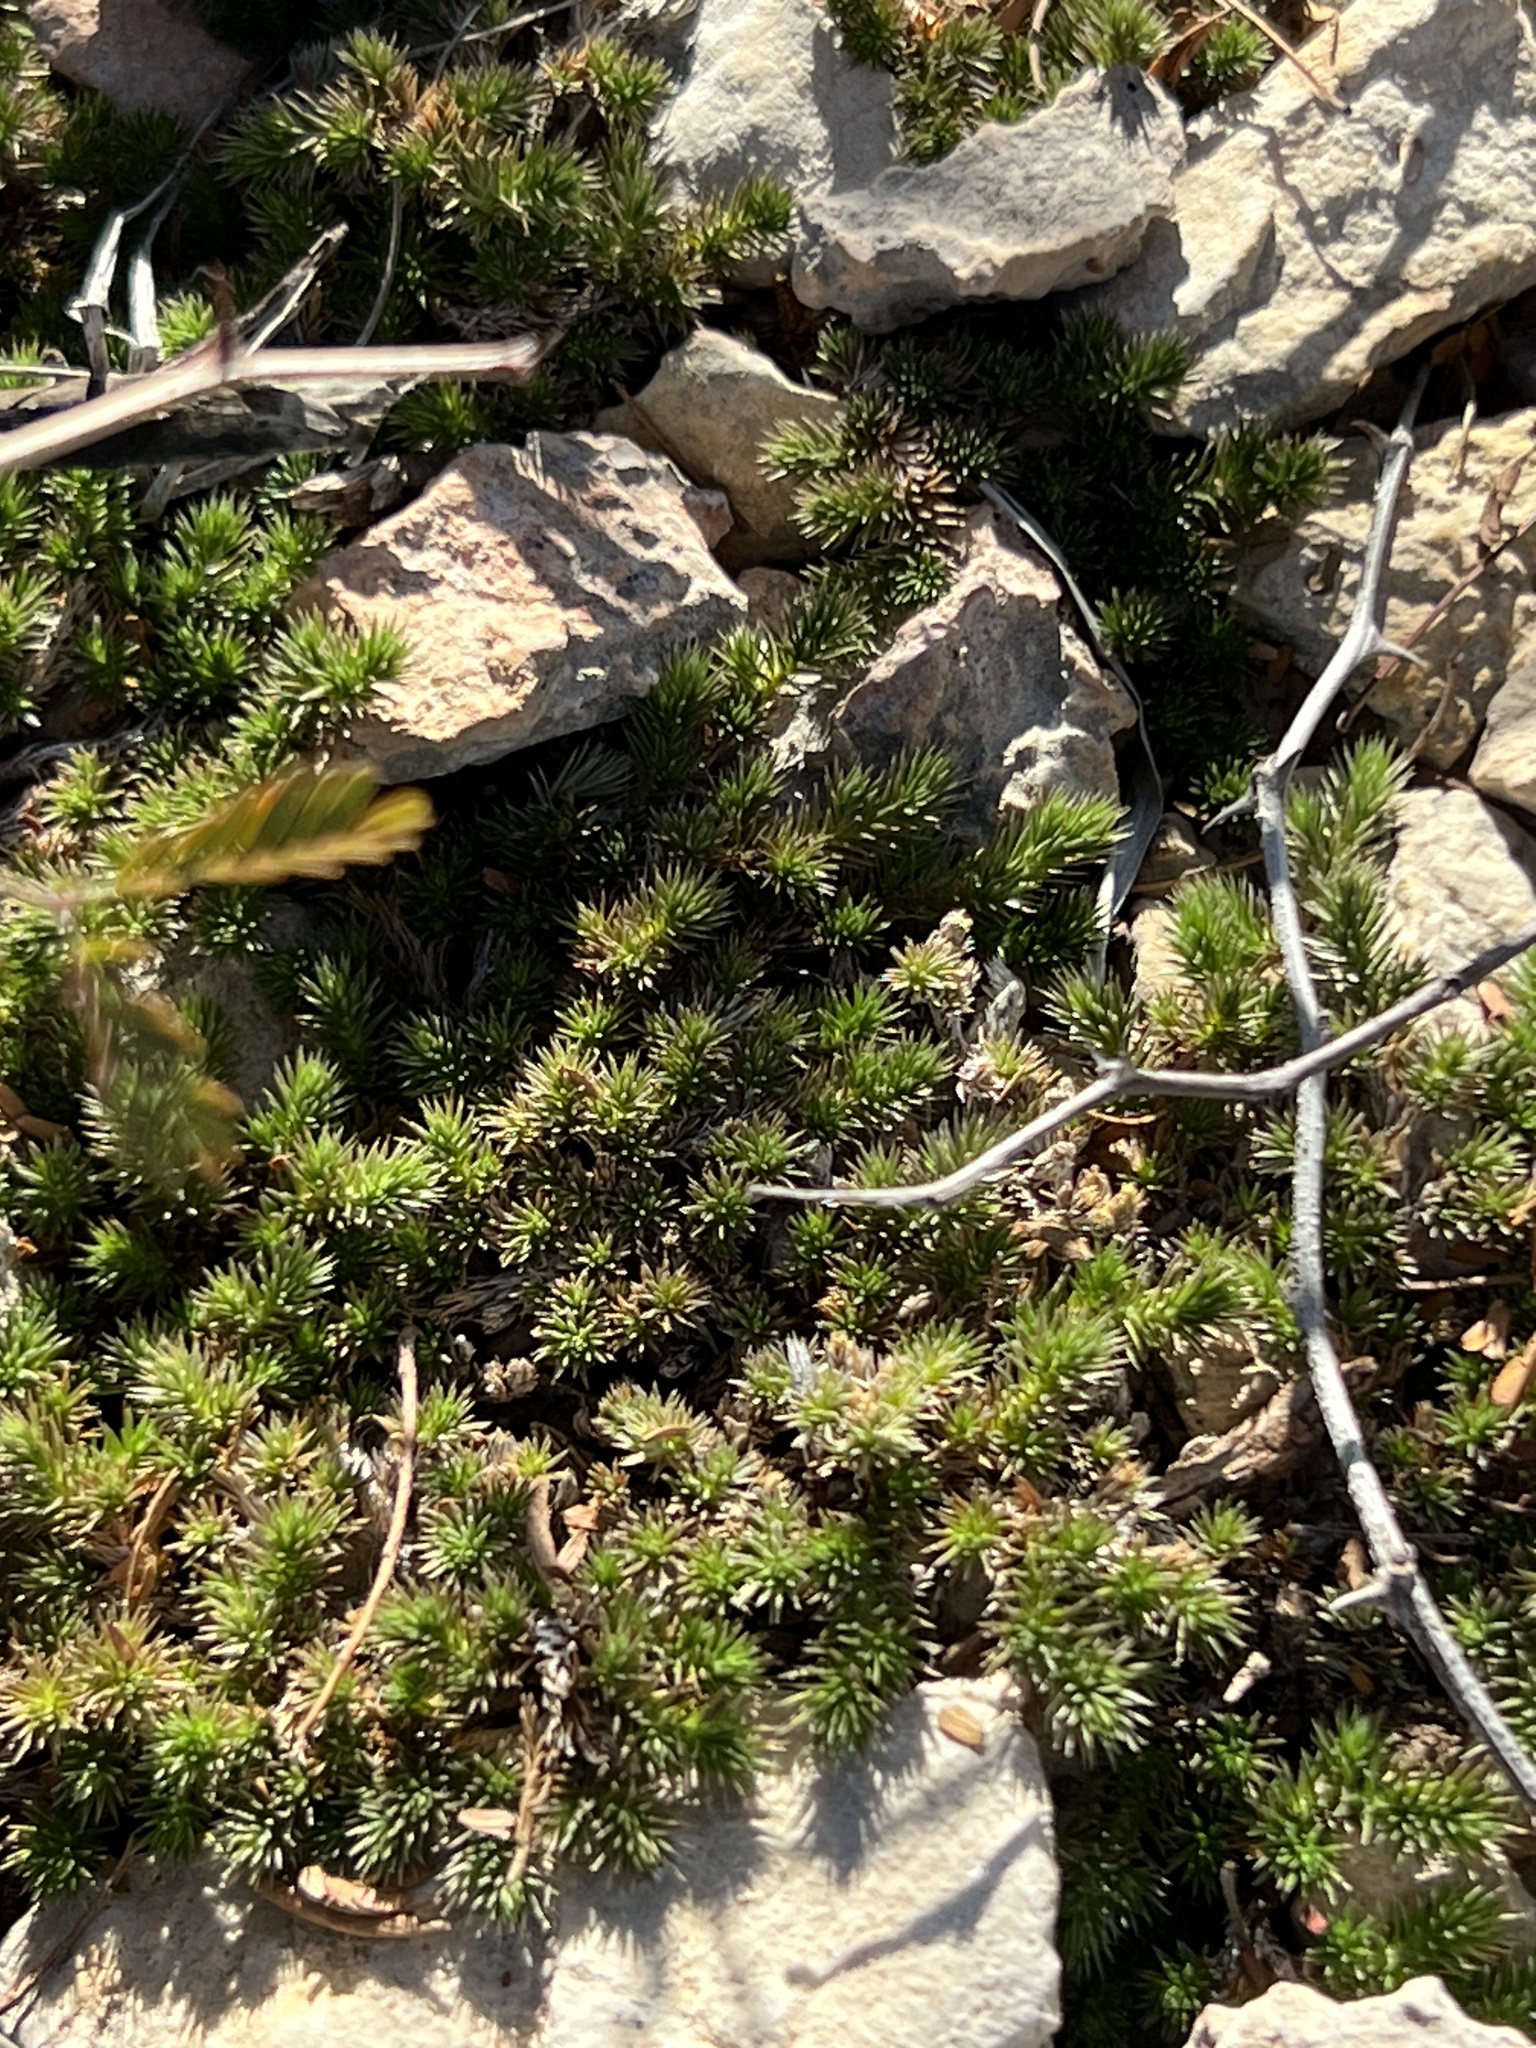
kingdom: Plantae
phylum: Tracheophyta
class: Lycopodiopsida
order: Selaginellales
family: Selaginellaceae
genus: Selaginella
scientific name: Selaginella wrightii
